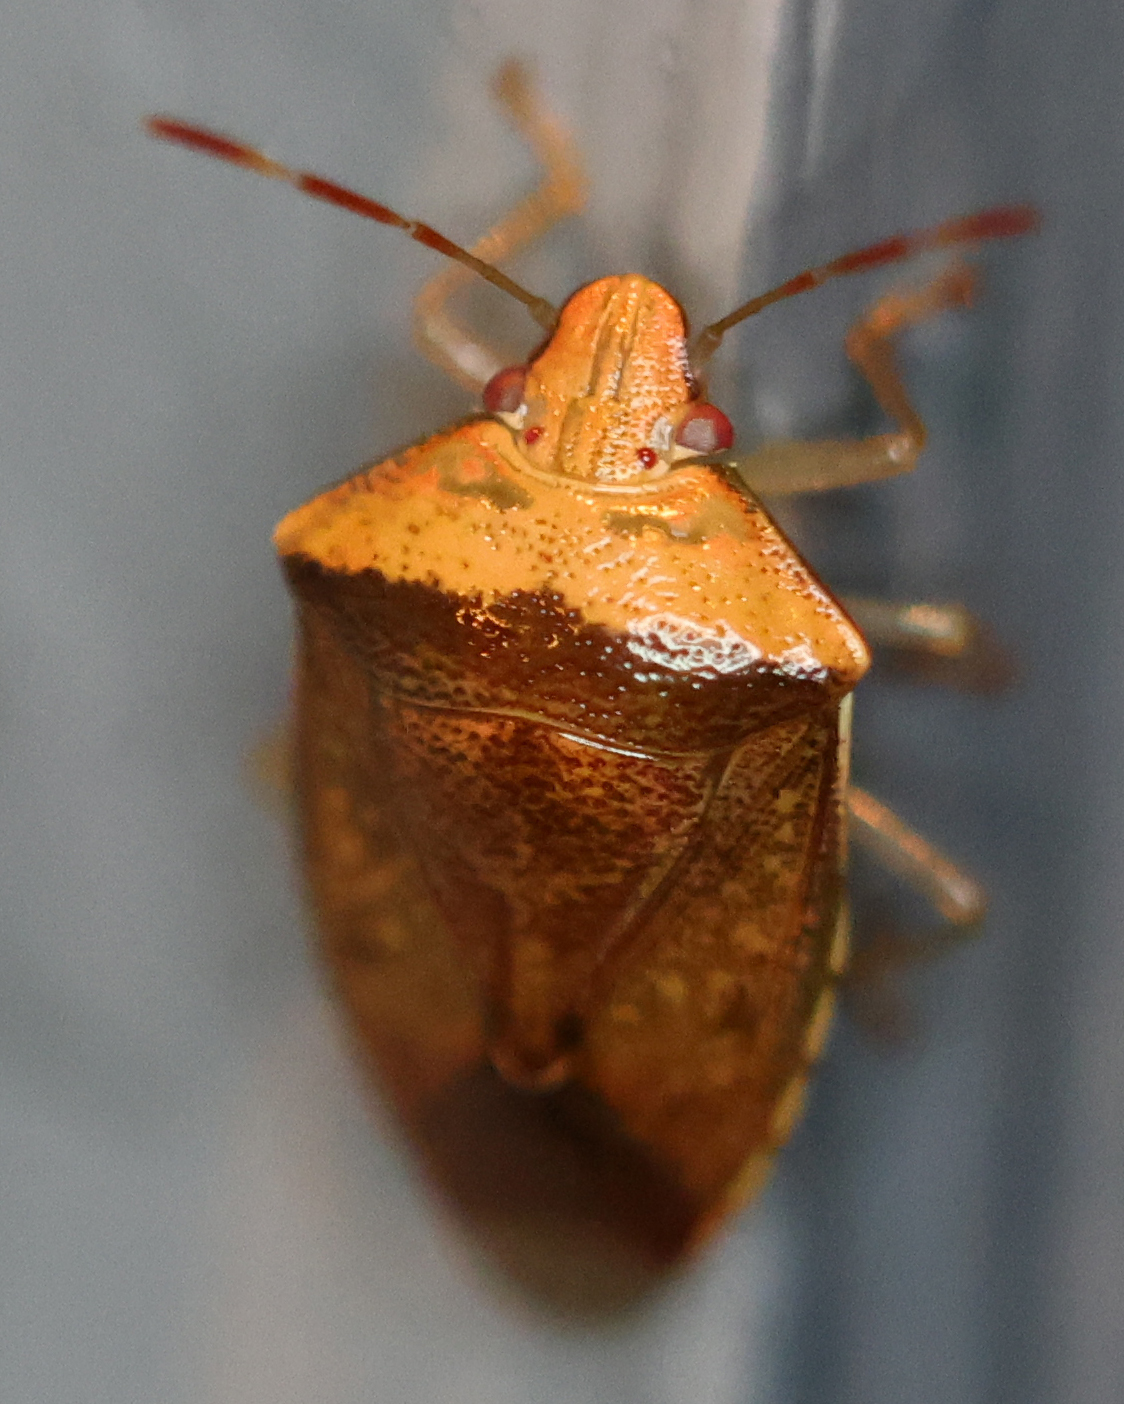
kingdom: Animalia
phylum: Arthropoda
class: Insecta
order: Hemiptera
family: Pentatomidae
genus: Banasa
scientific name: Banasa calva
